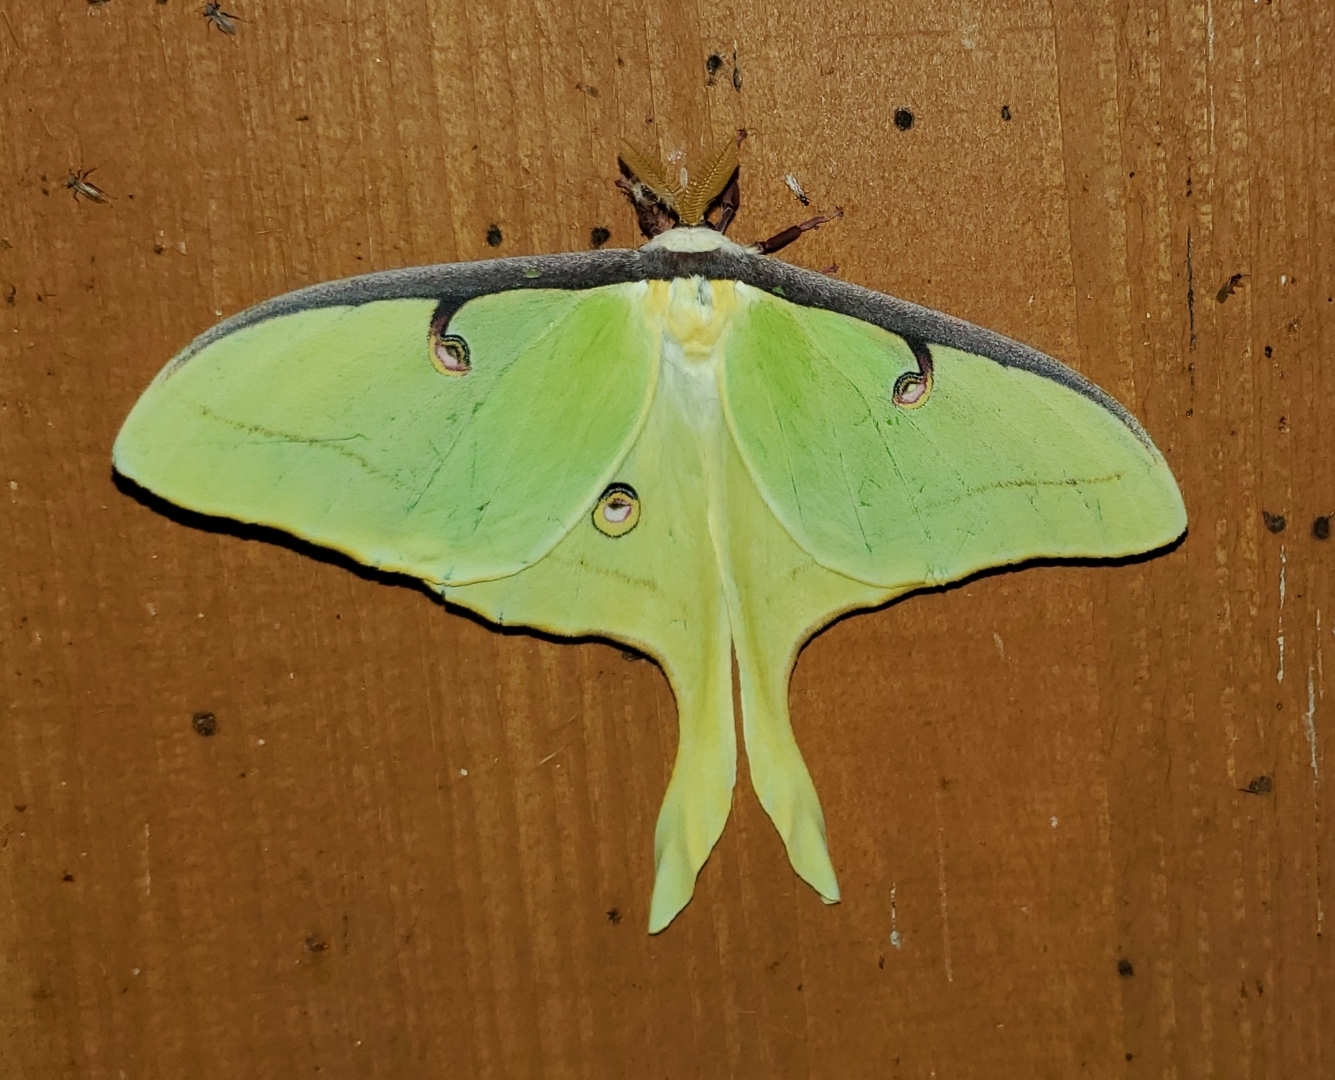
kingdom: Animalia
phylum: Arthropoda
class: Insecta
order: Lepidoptera
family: Saturniidae
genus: Actias
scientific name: Actias luna
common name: Luna moth
